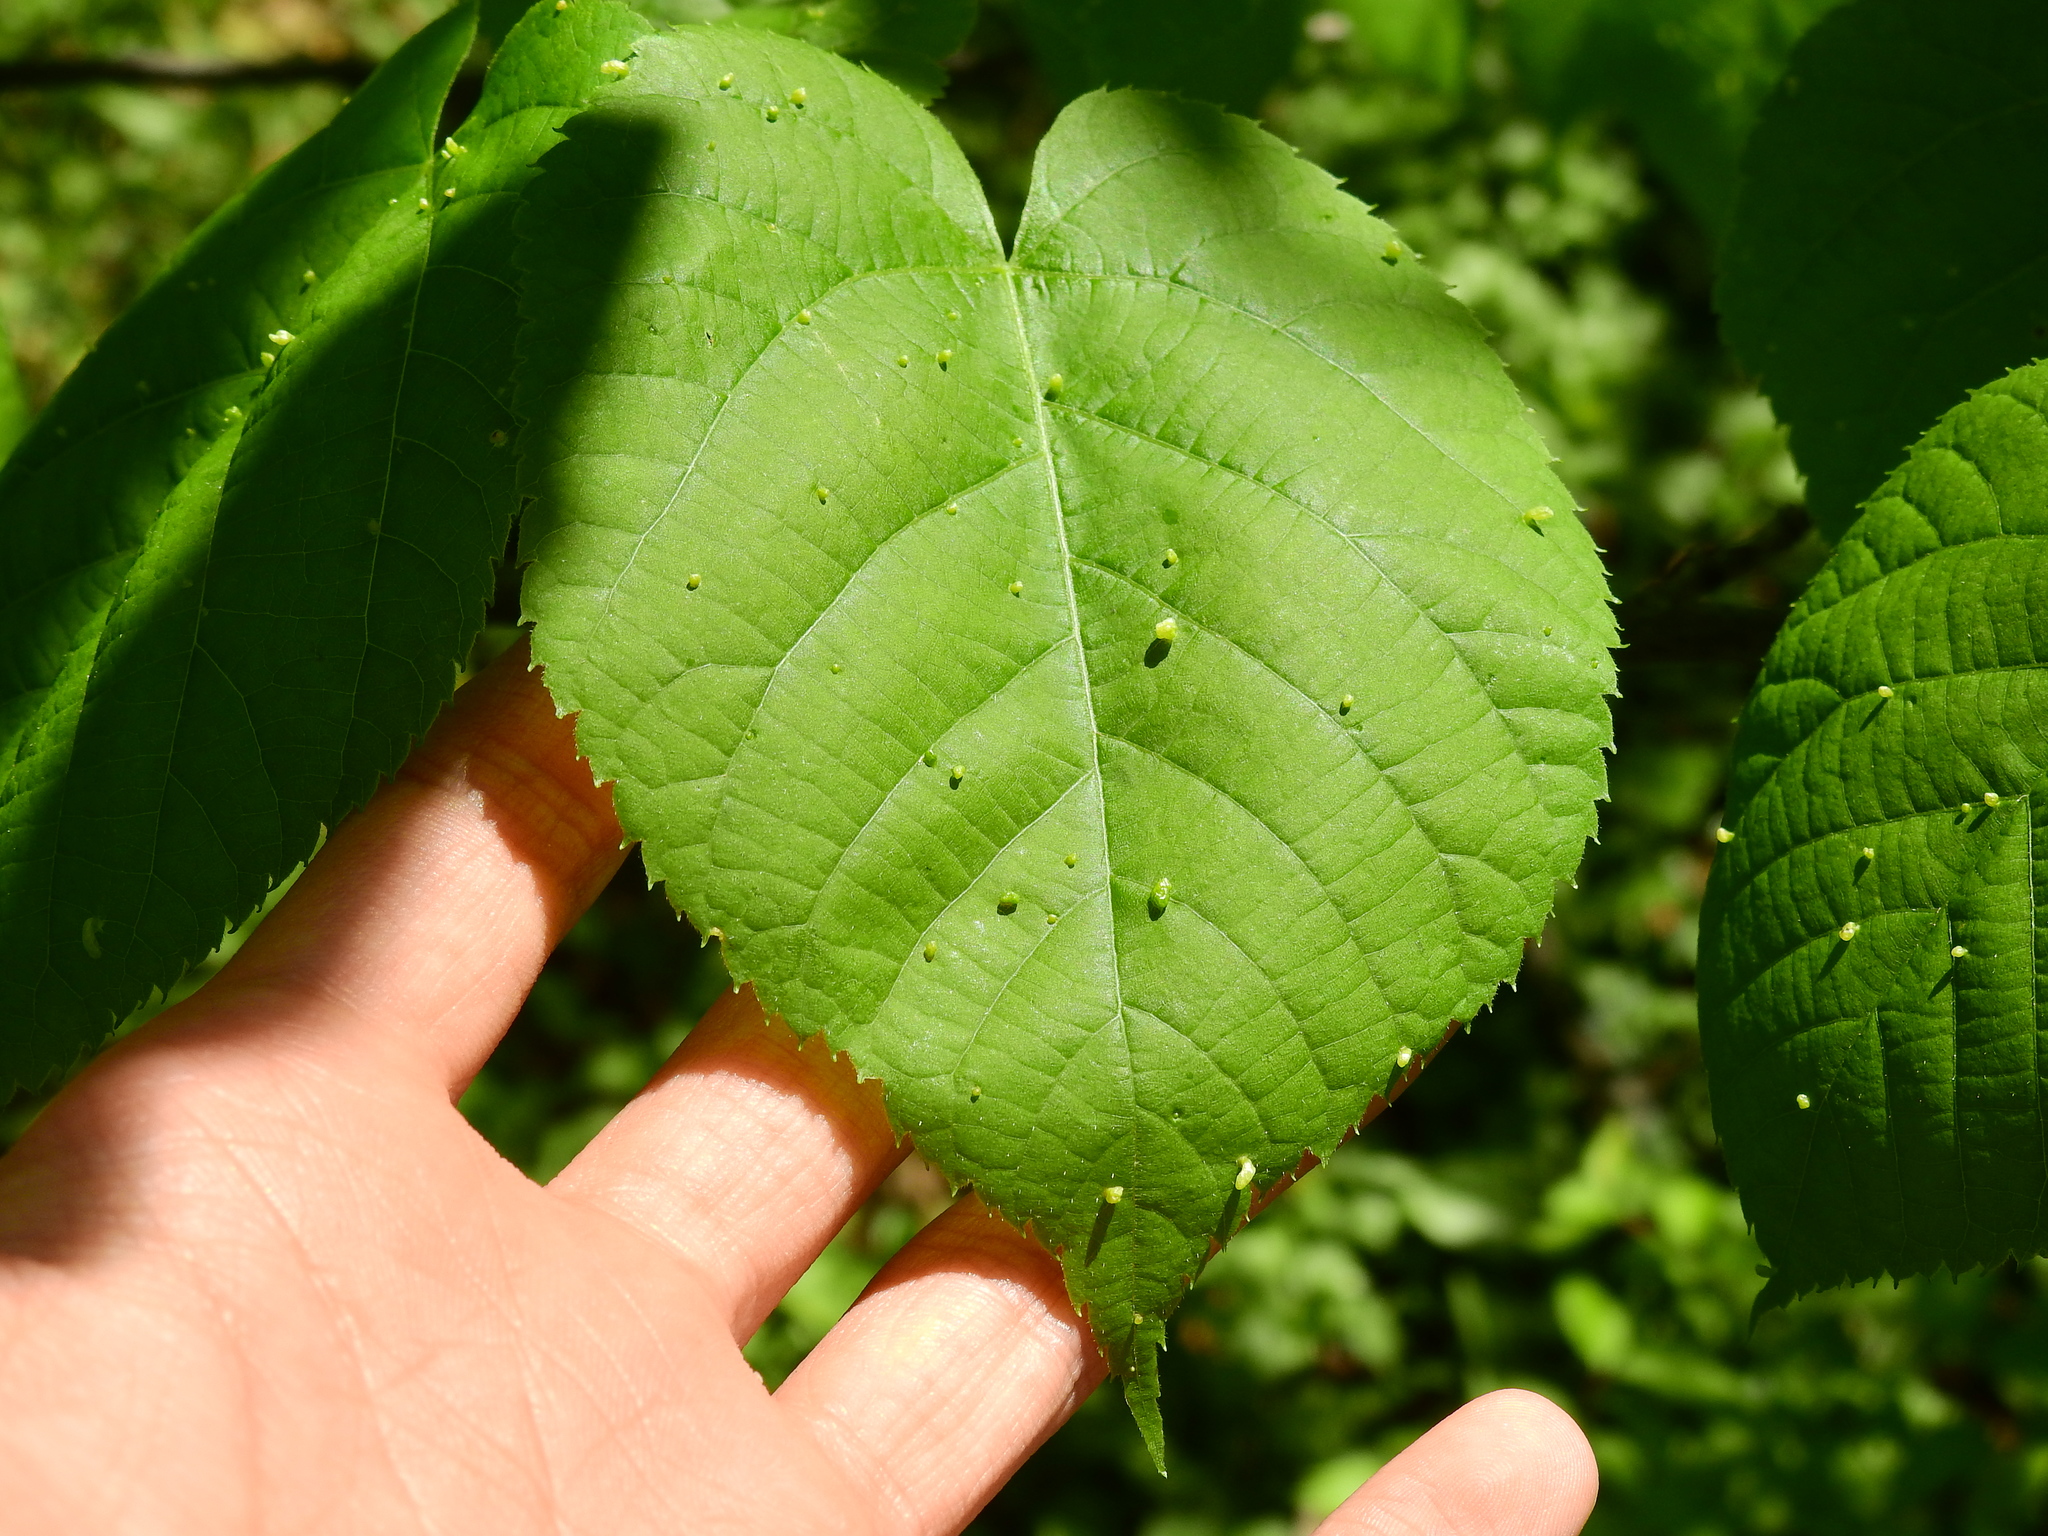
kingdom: Animalia
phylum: Arthropoda
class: Arachnida
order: Trombidiformes
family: Eriophyidae
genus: Eriophyes
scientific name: Eriophyes tiliae
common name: Red nail gall mite
